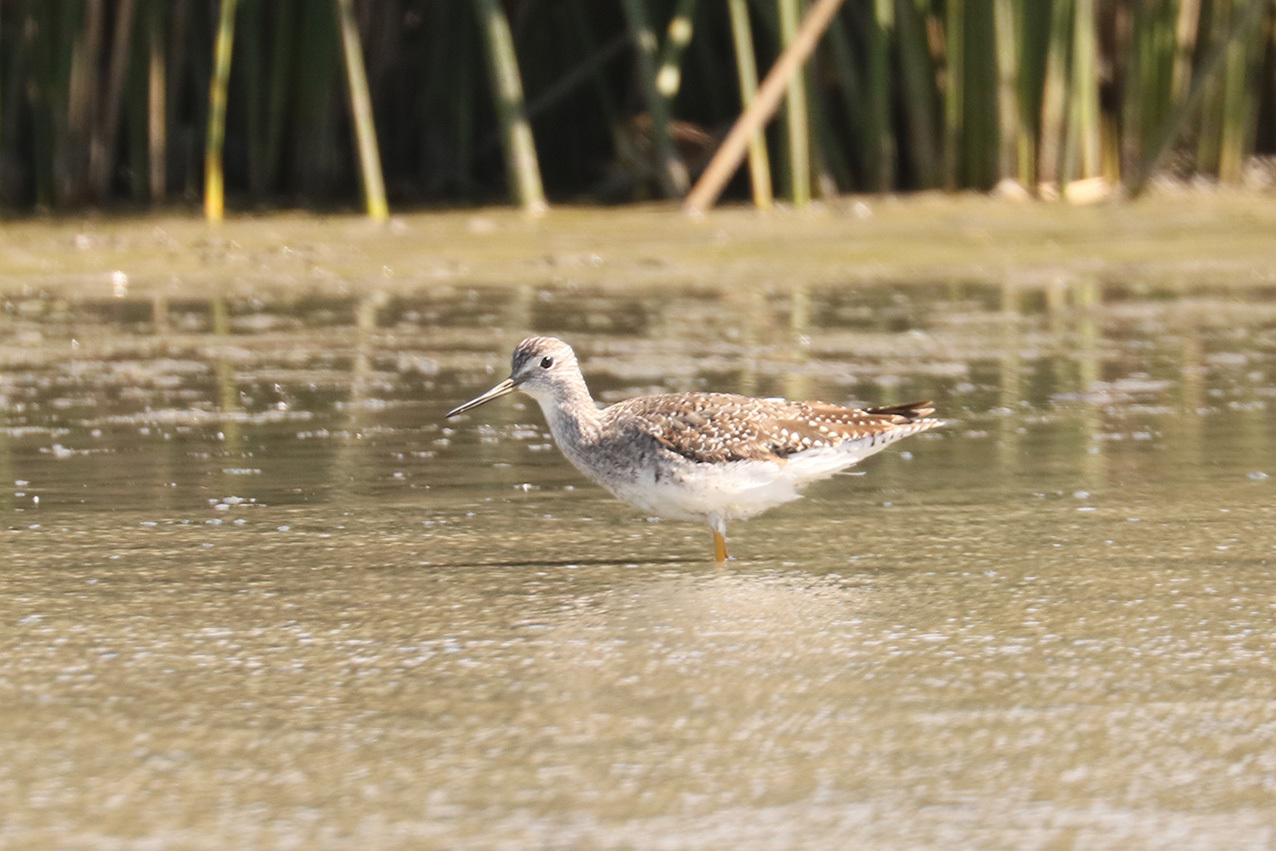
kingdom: Animalia
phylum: Chordata
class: Aves
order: Charadriiformes
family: Scolopacidae
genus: Tringa
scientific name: Tringa melanoleuca
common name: Greater yellowlegs
